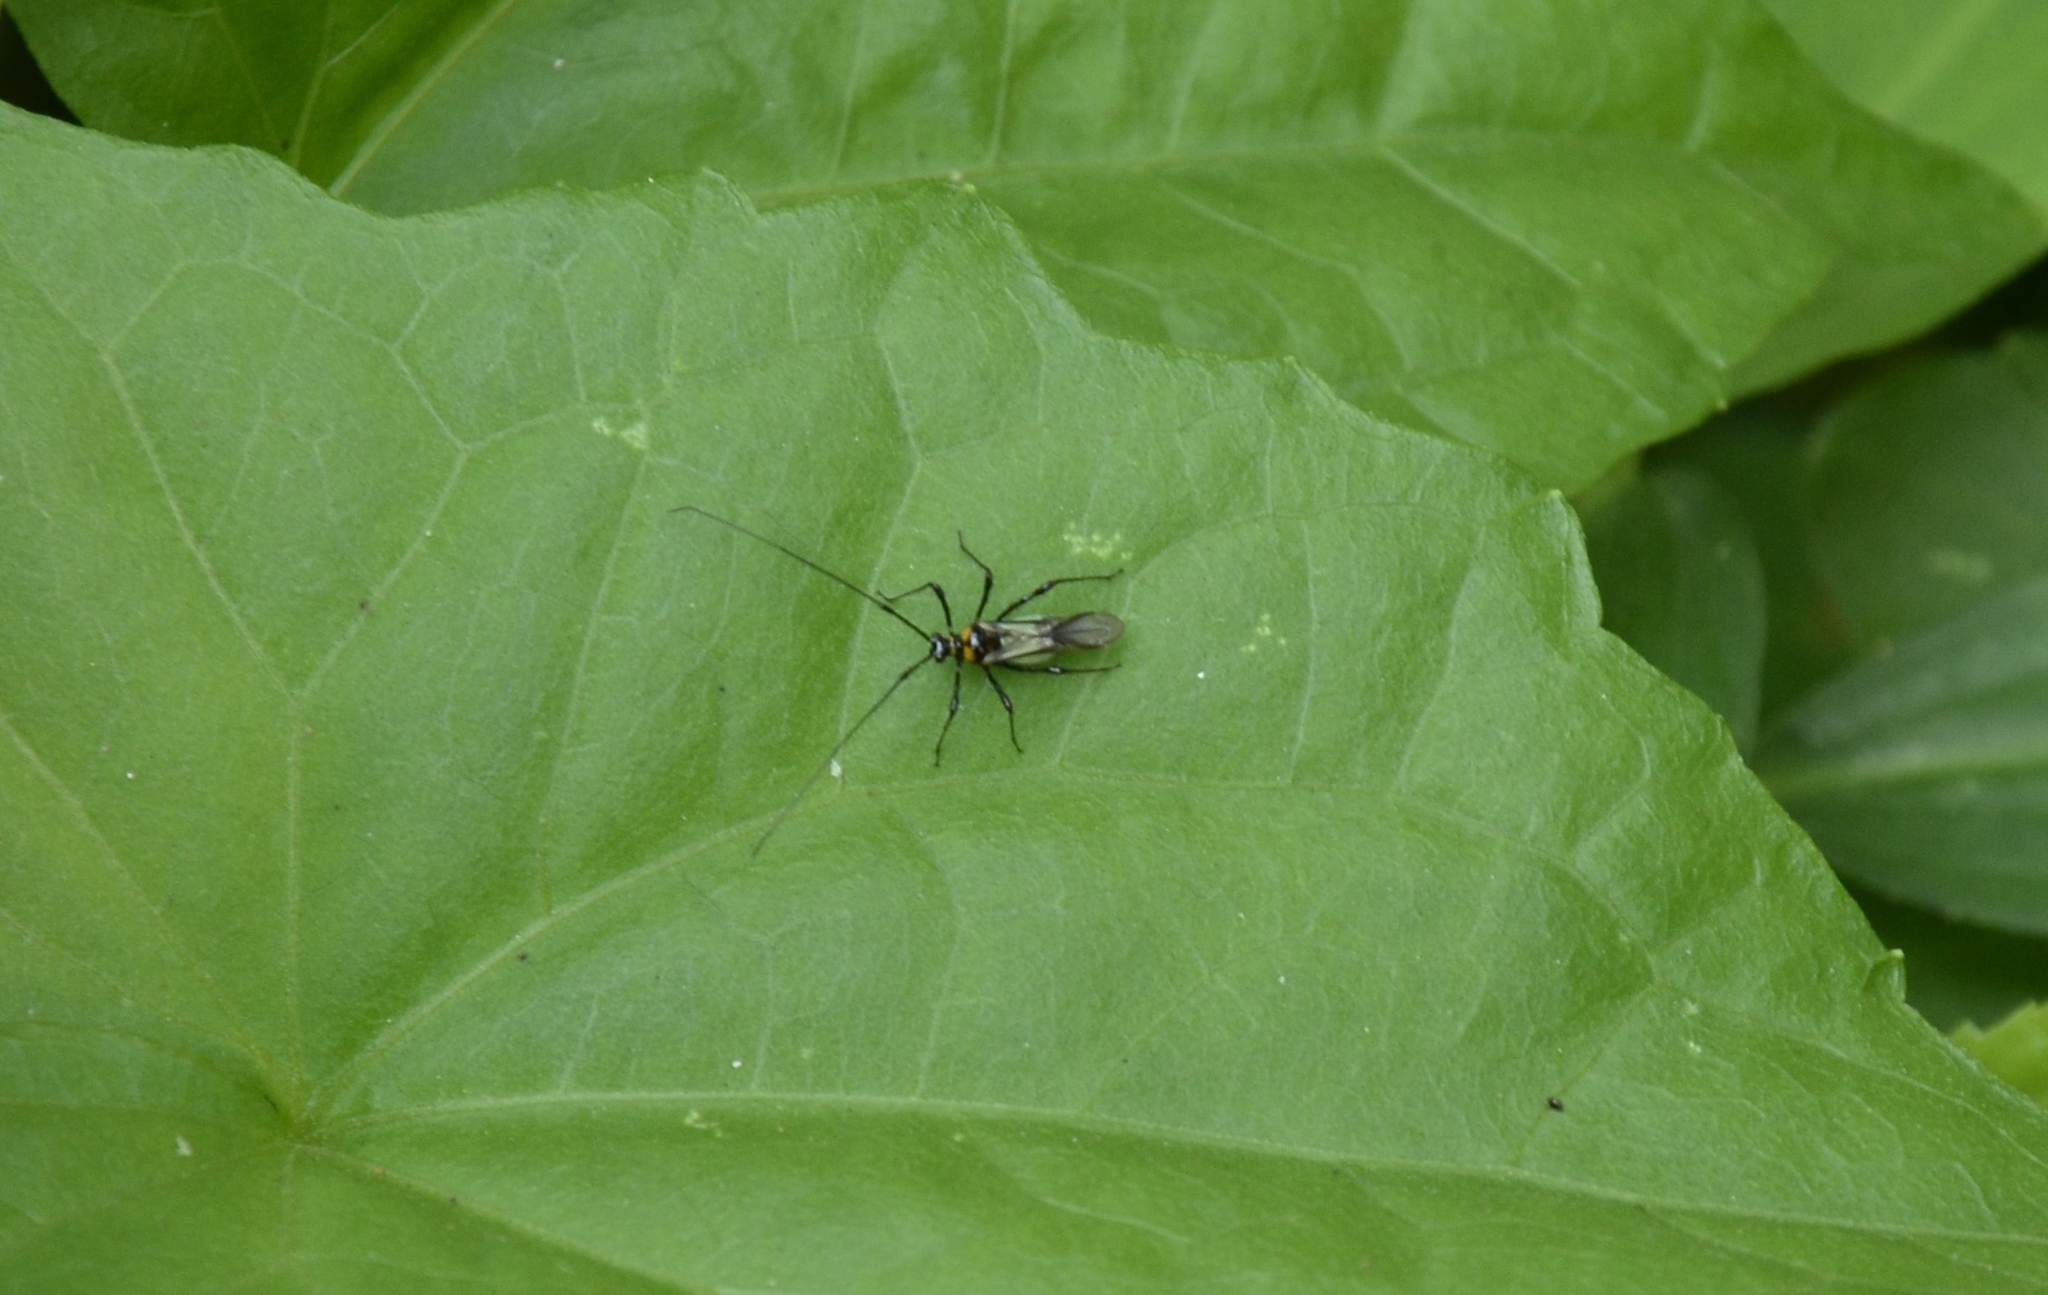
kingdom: Animalia
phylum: Arthropoda
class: Insecta
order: Hemiptera
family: Miridae
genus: Helopeltis
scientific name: Helopeltis theivora
